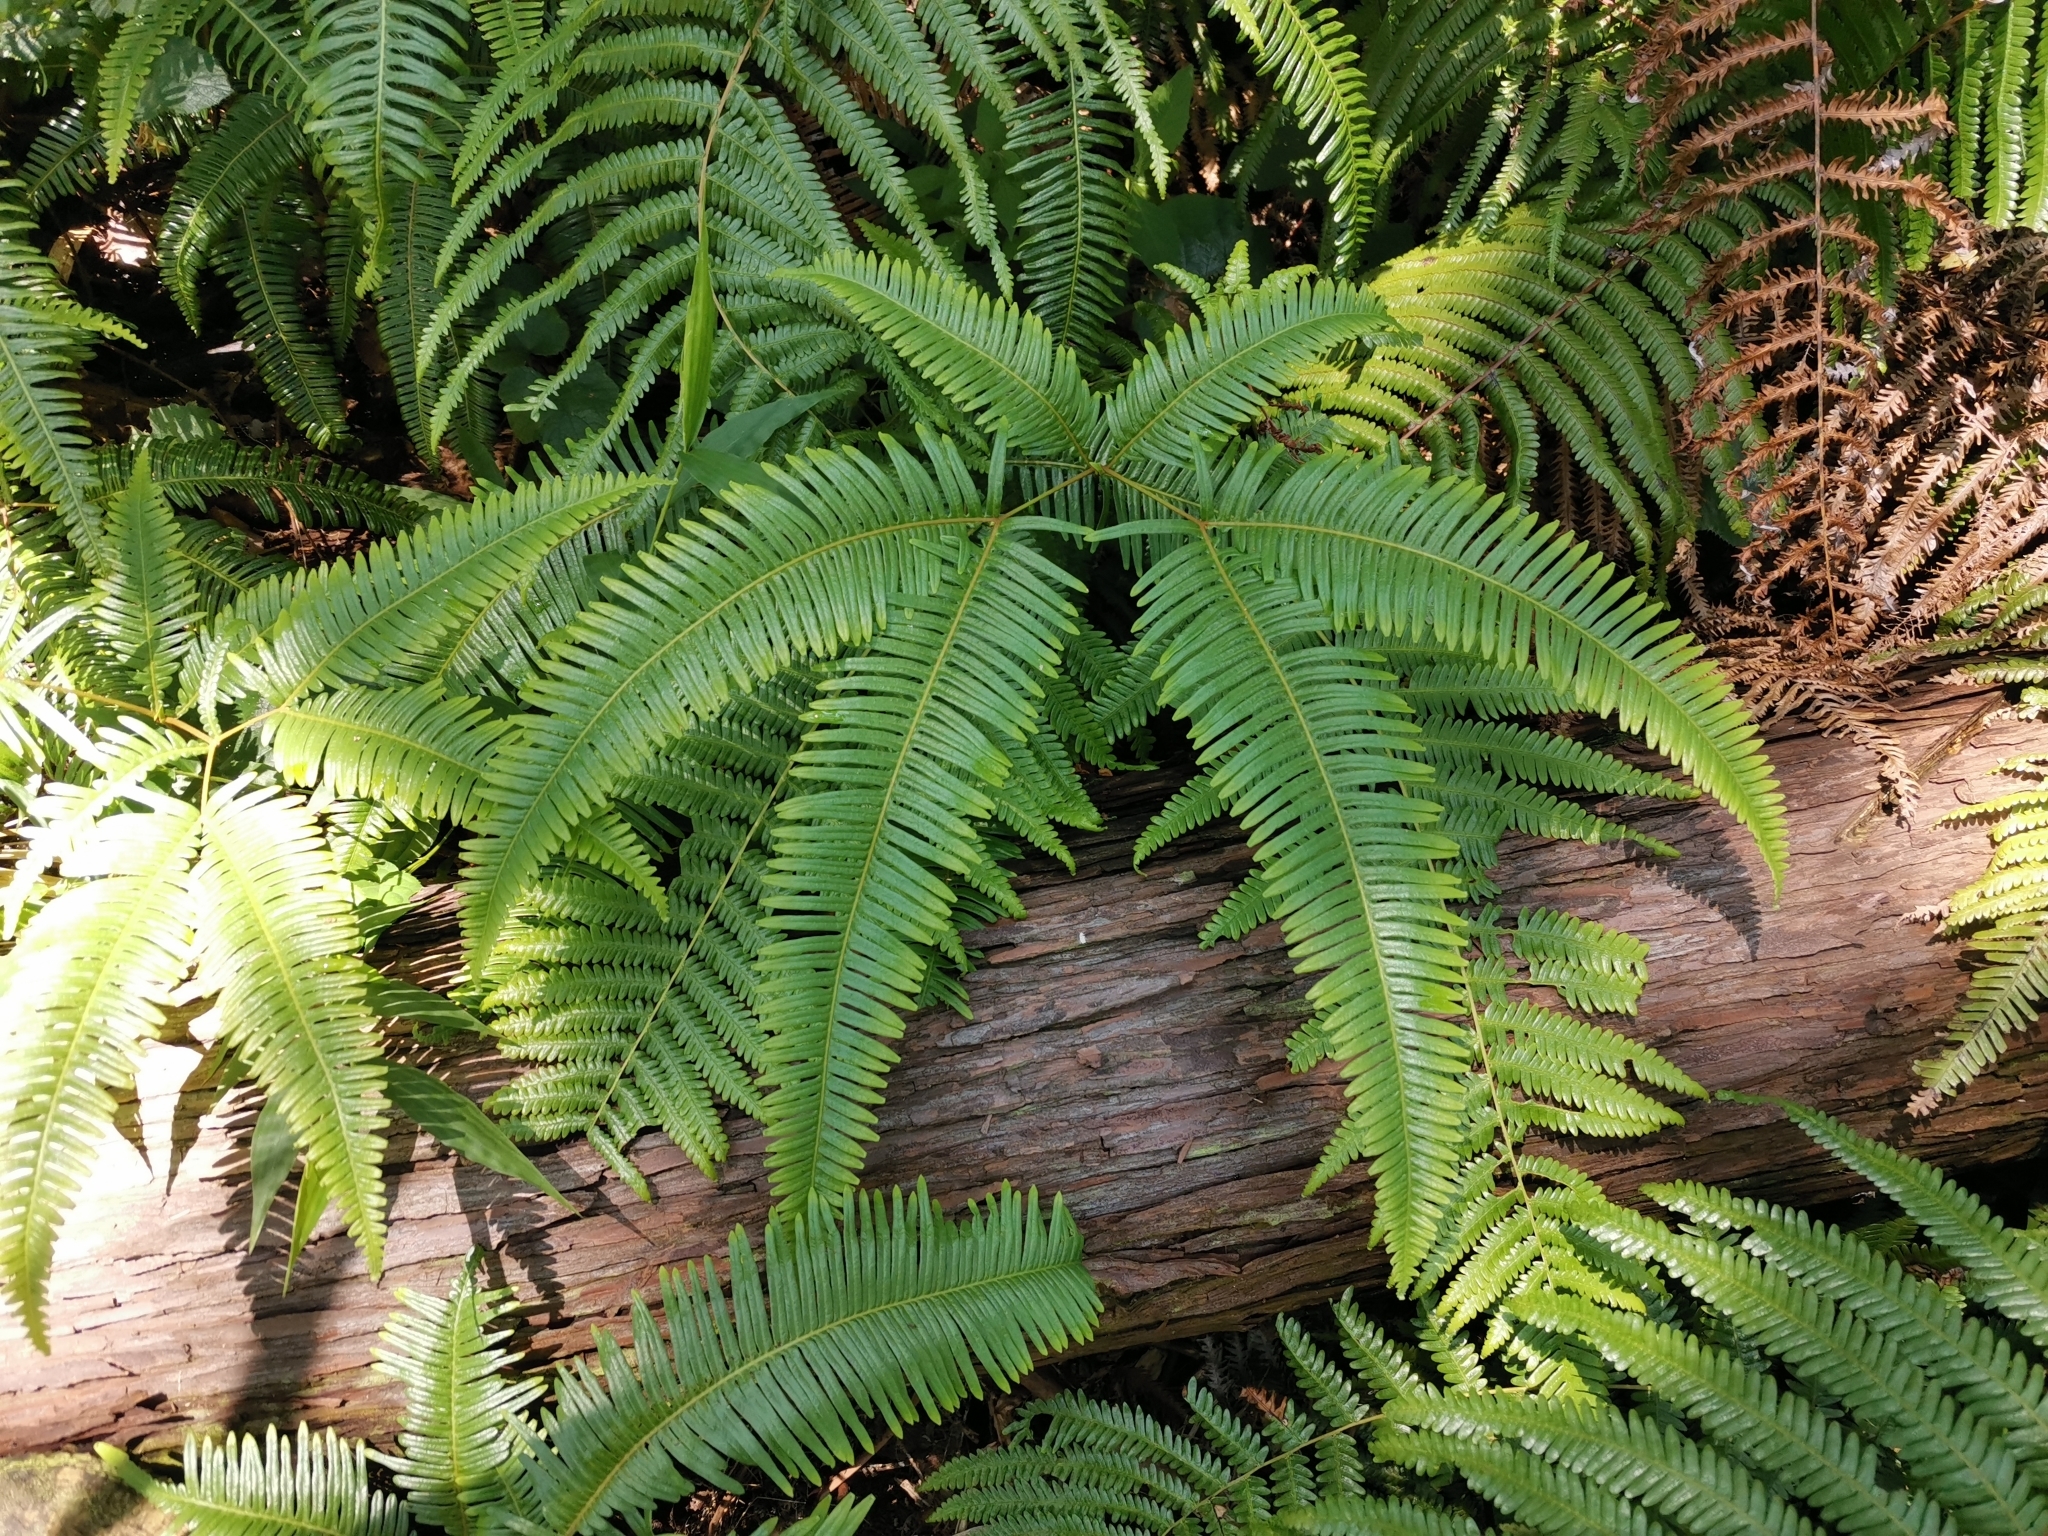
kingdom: Plantae
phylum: Tracheophyta
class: Polypodiopsida
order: Gleicheniales
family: Gleicheniaceae
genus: Dicranopteris
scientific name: Dicranopteris linearis
